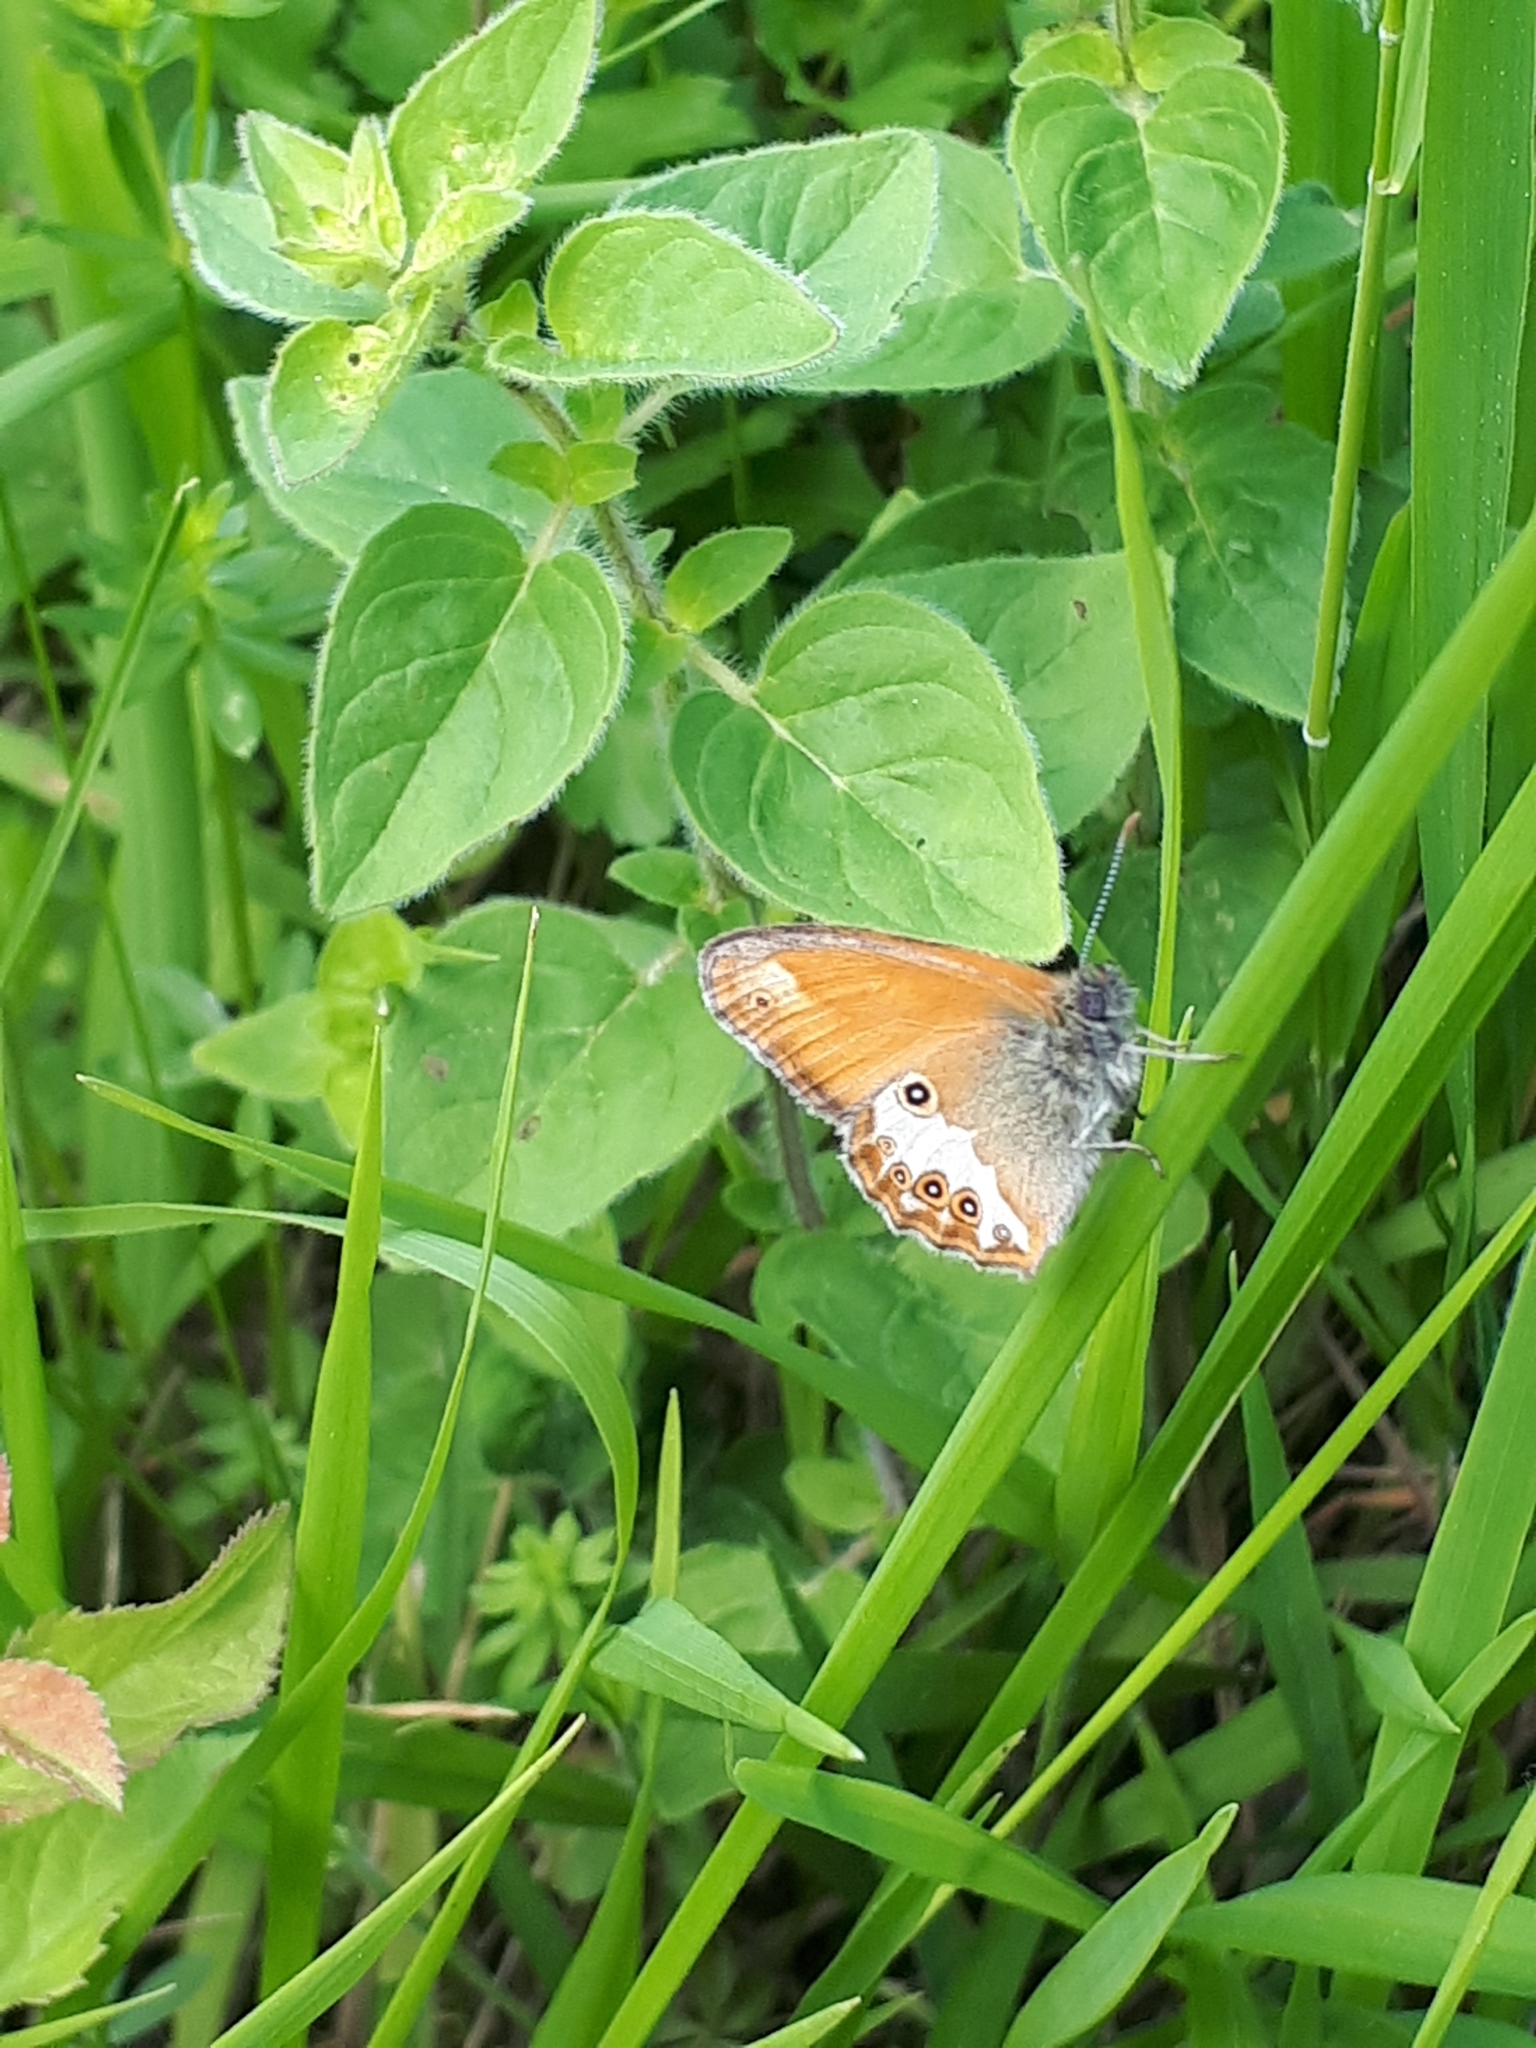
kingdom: Animalia
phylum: Arthropoda
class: Insecta
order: Lepidoptera
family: Nymphalidae
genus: Coenonympha
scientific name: Coenonympha arcania
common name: Pearly heath
